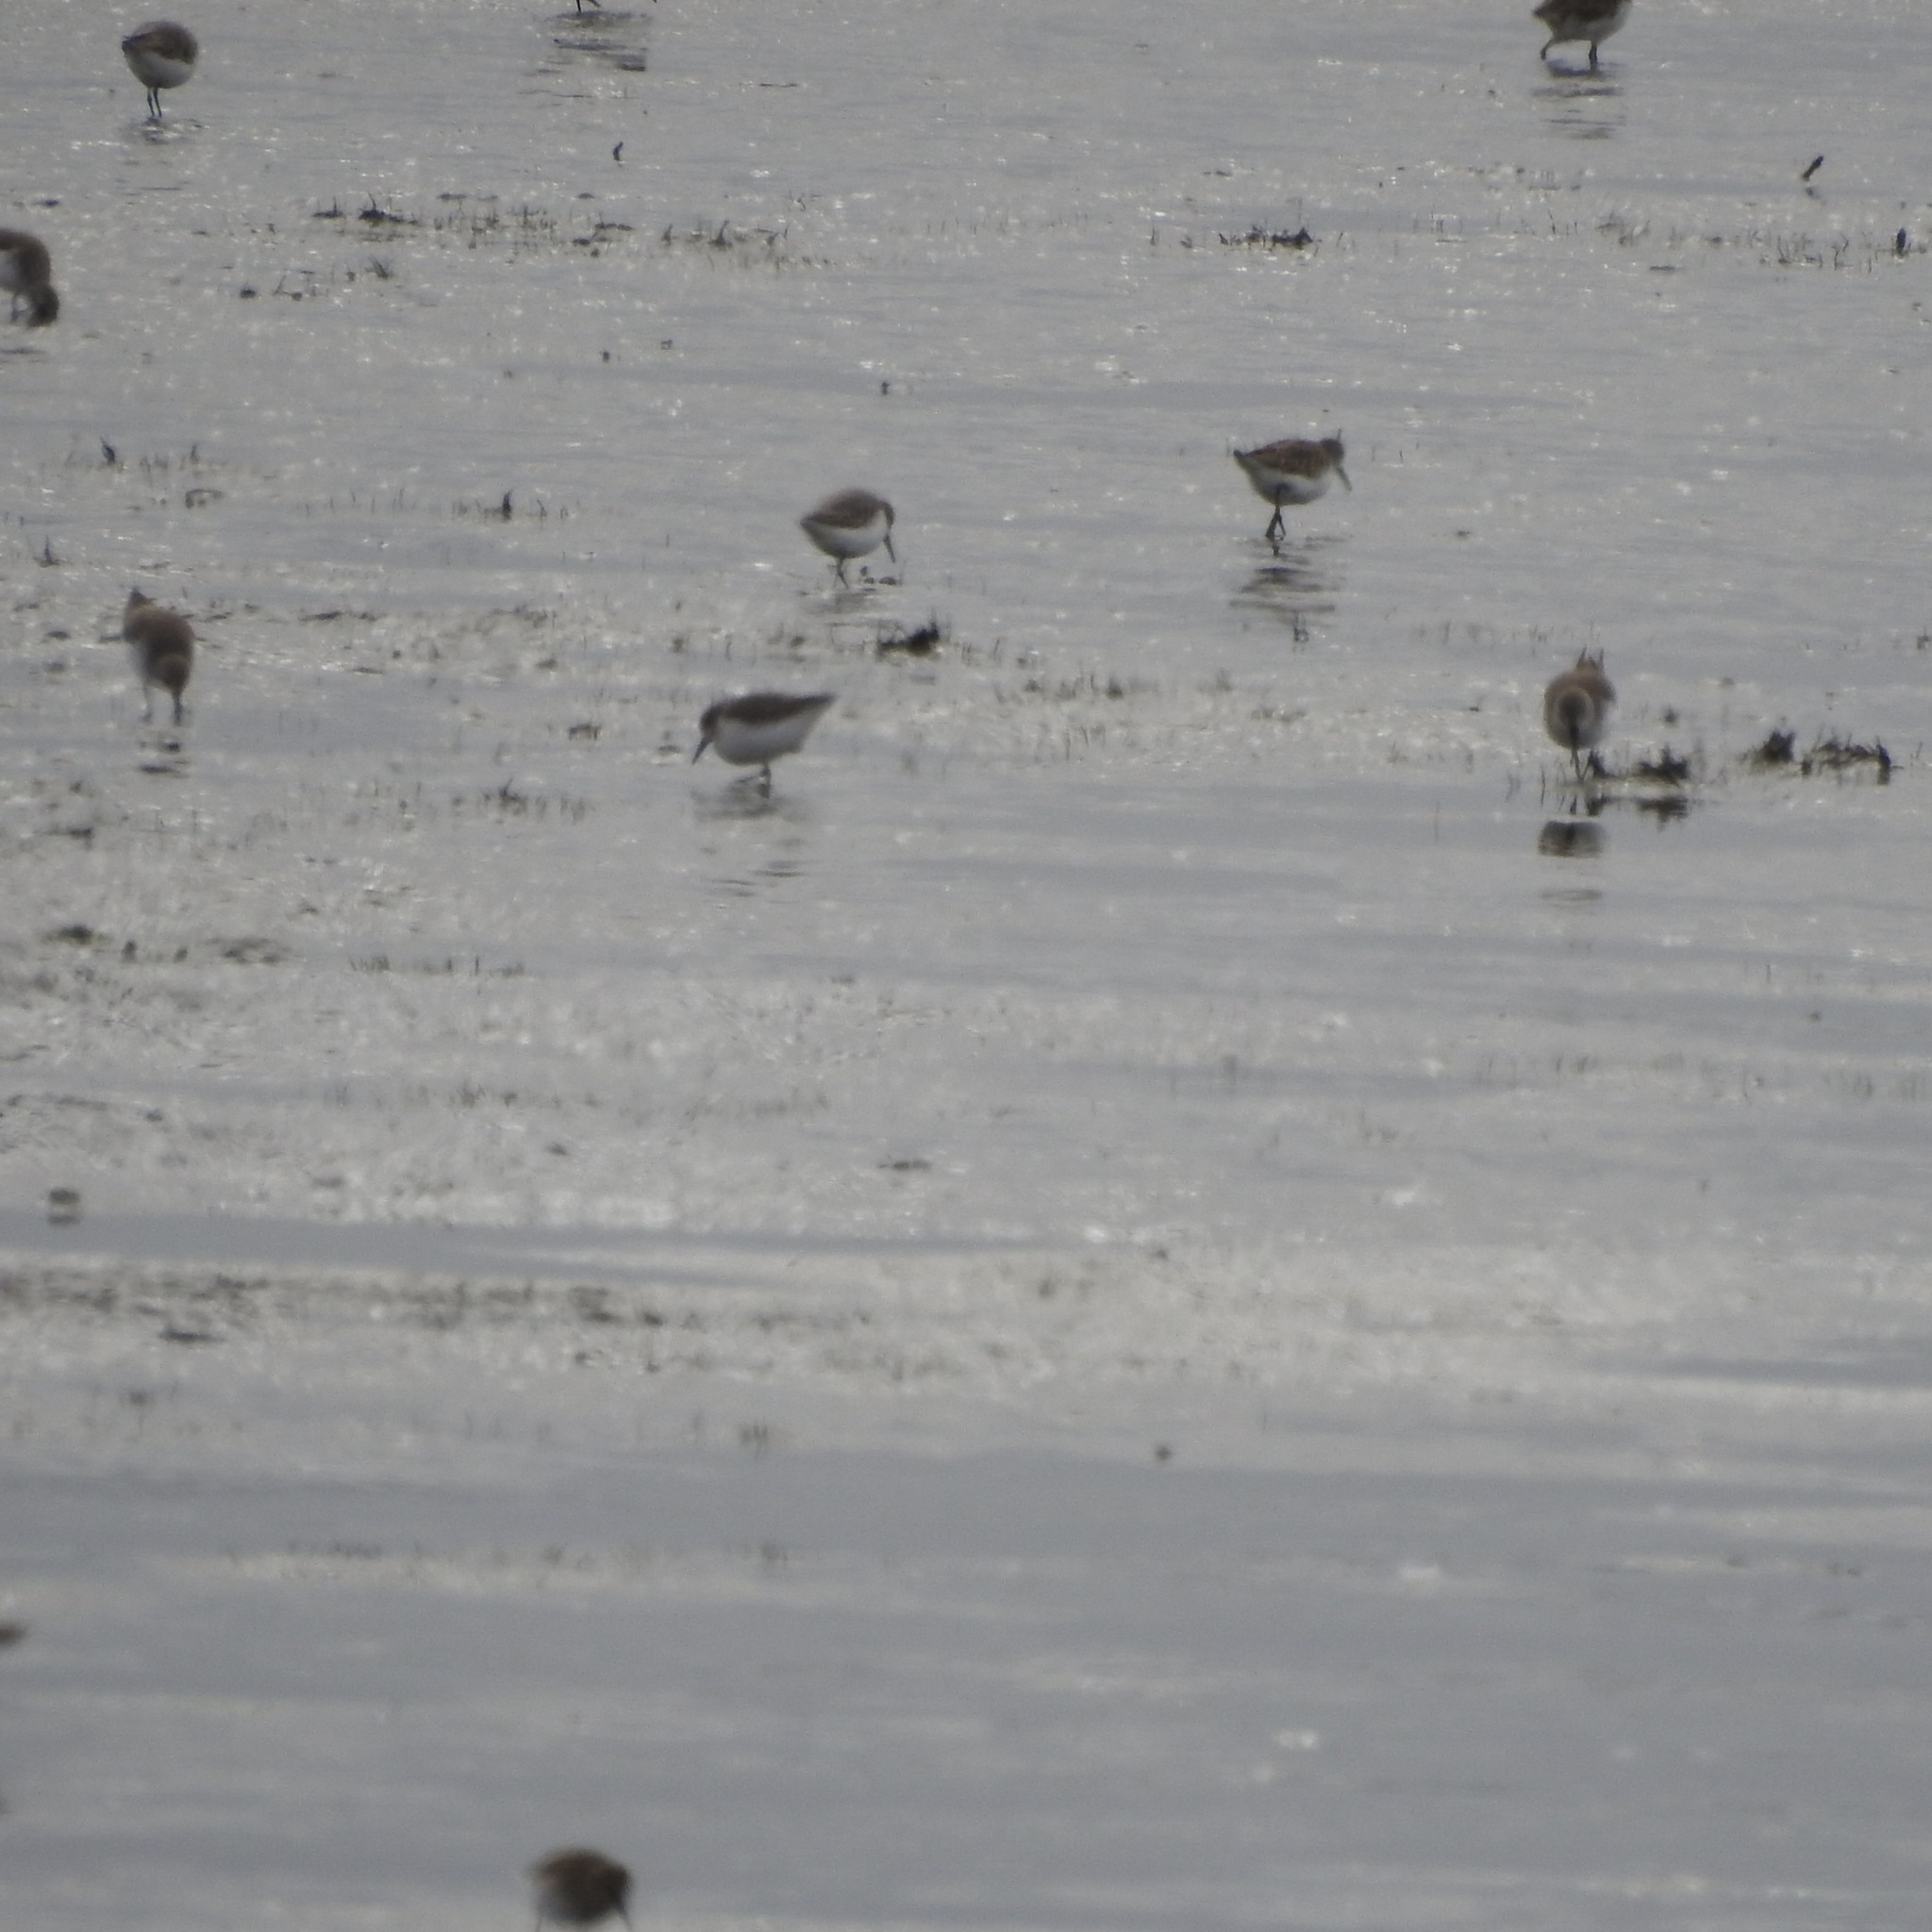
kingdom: Animalia
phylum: Chordata
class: Aves
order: Charadriiformes
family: Scolopacidae
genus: Calidris
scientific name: Calidris mauri
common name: Western sandpiper
